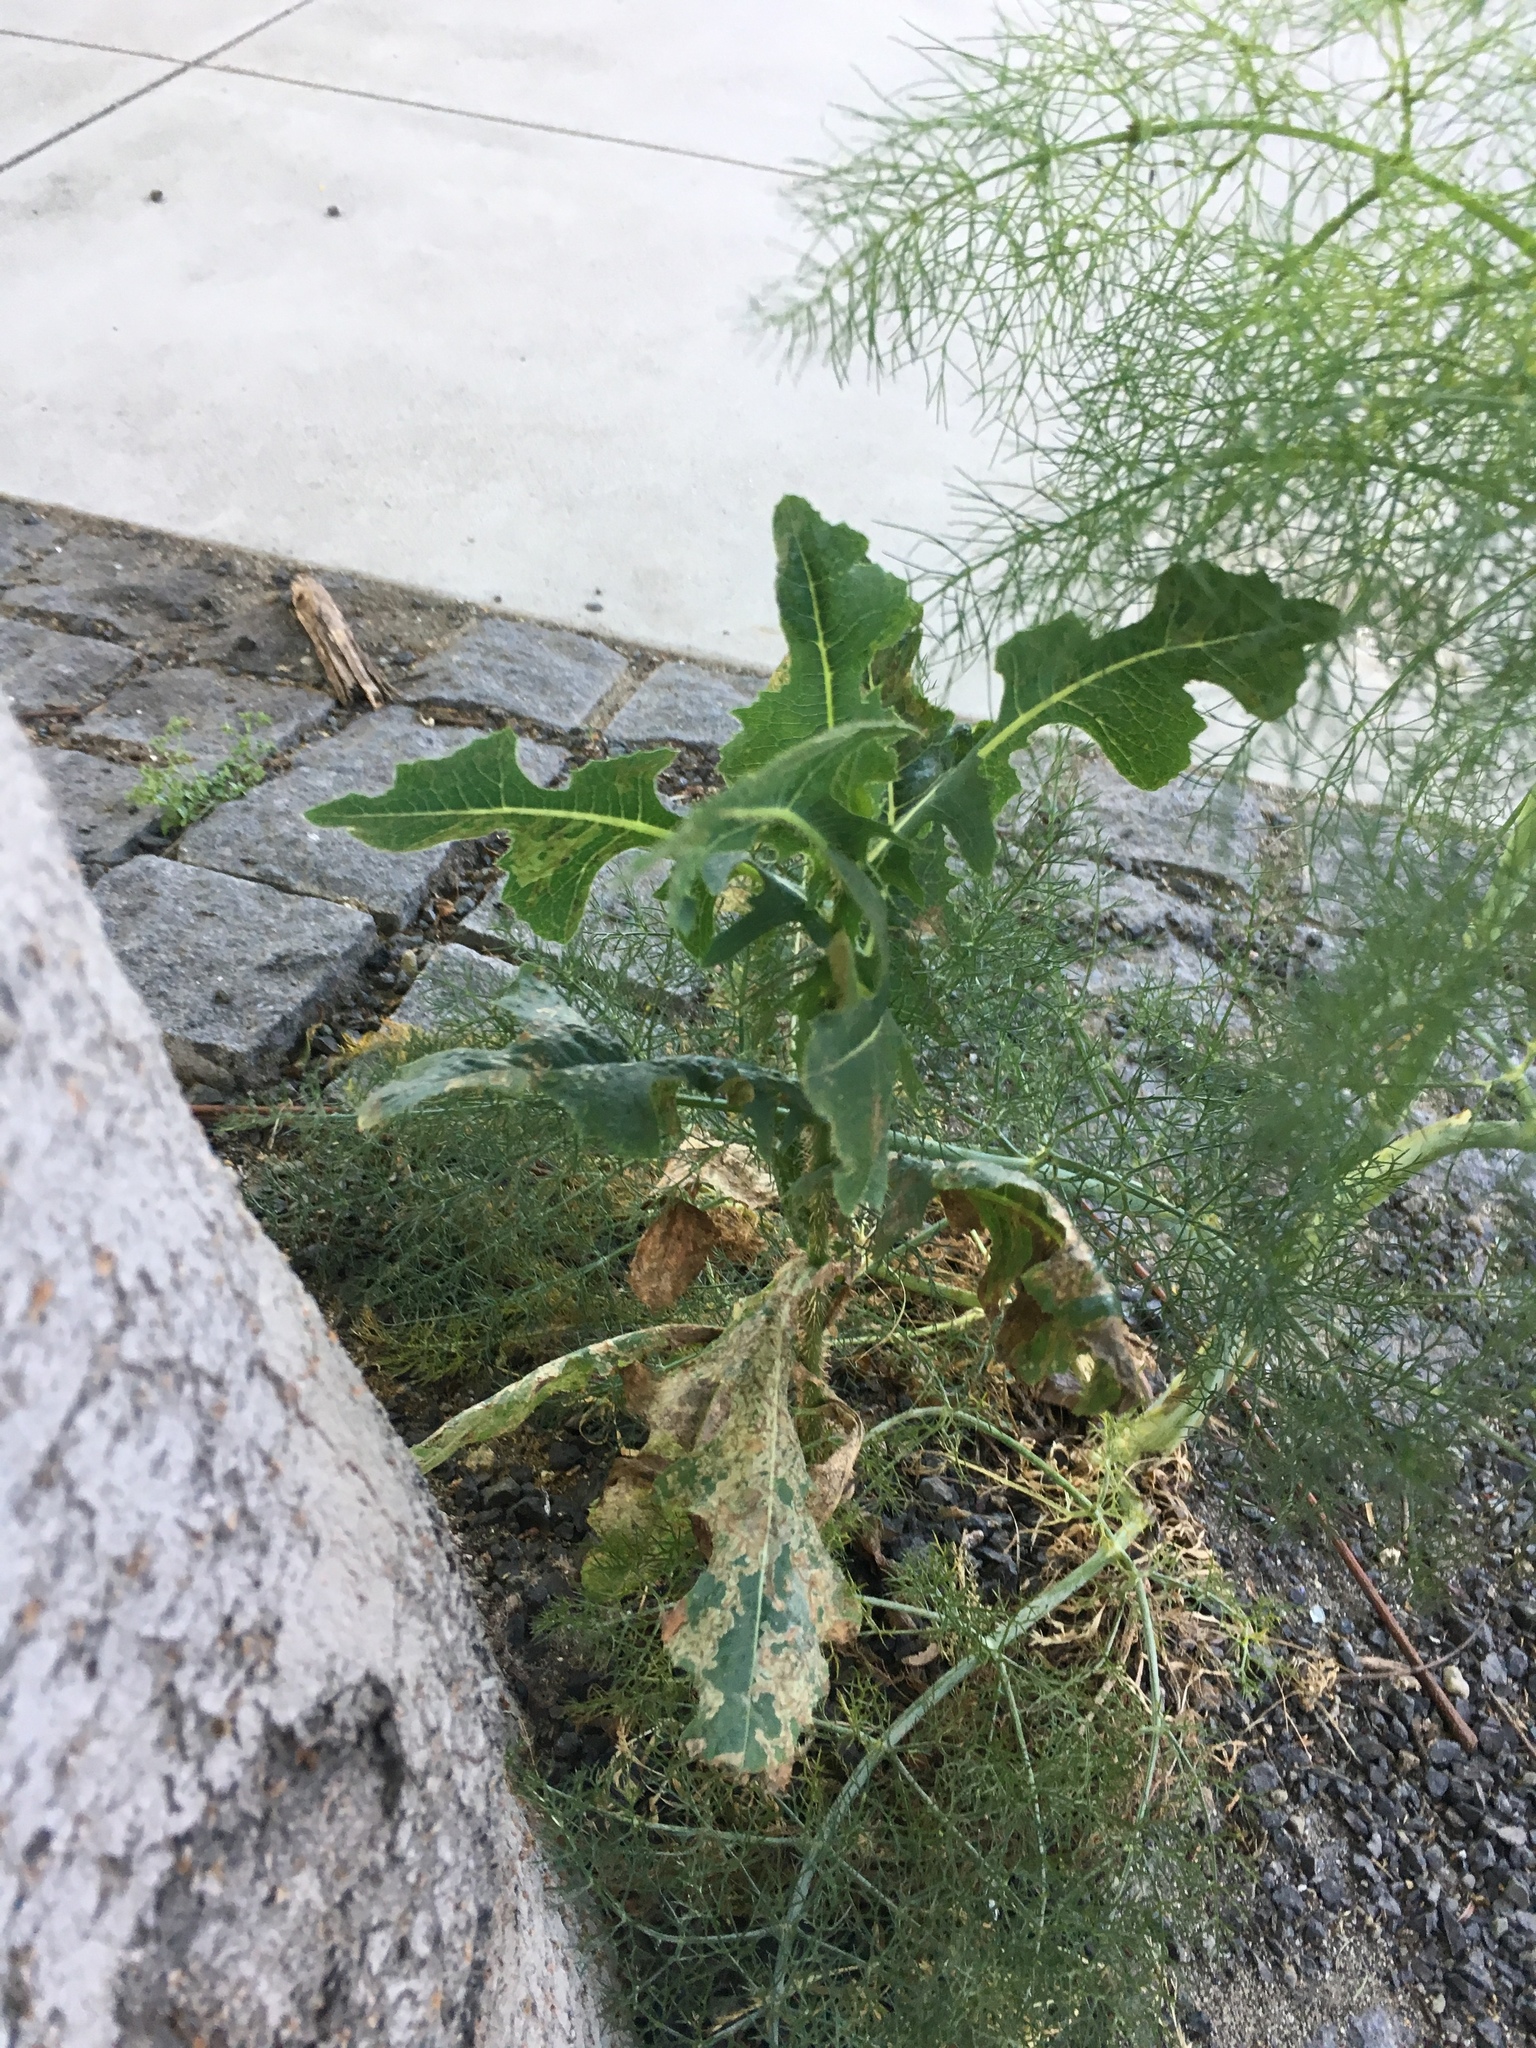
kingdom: Plantae
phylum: Tracheophyta
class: Magnoliopsida
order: Asterales
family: Asteraceae
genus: Lactuca
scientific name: Lactuca serriola
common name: Prickly lettuce
